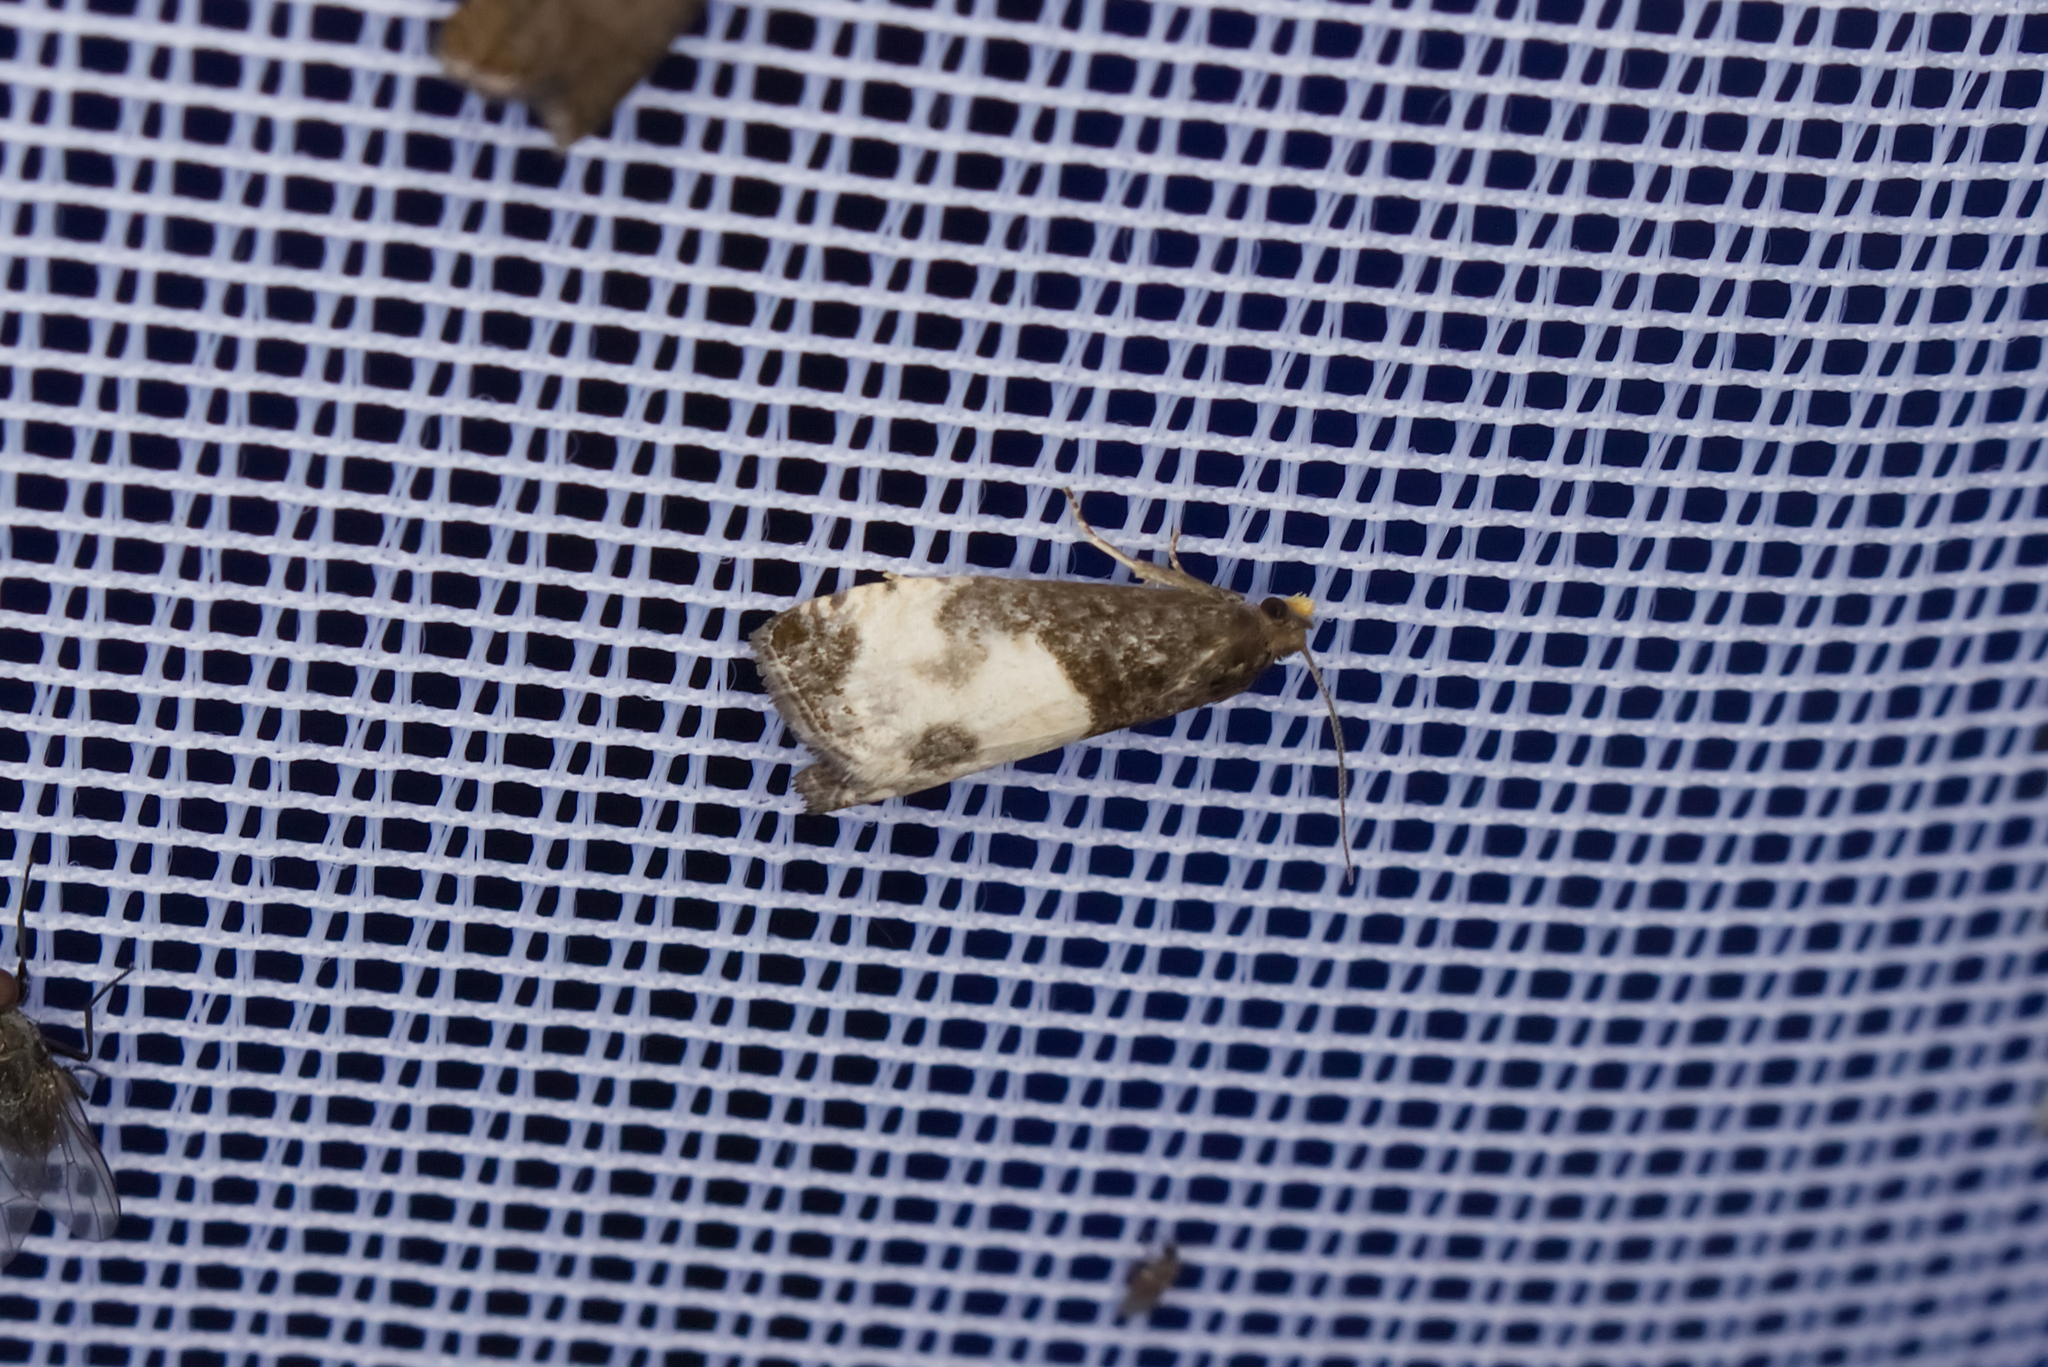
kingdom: Animalia
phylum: Arthropoda
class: Insecta
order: Lepidoptera
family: Tortricidae
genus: Notocelia
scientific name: Notocelia cynosbatella
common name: Yellow-faced bell moth
